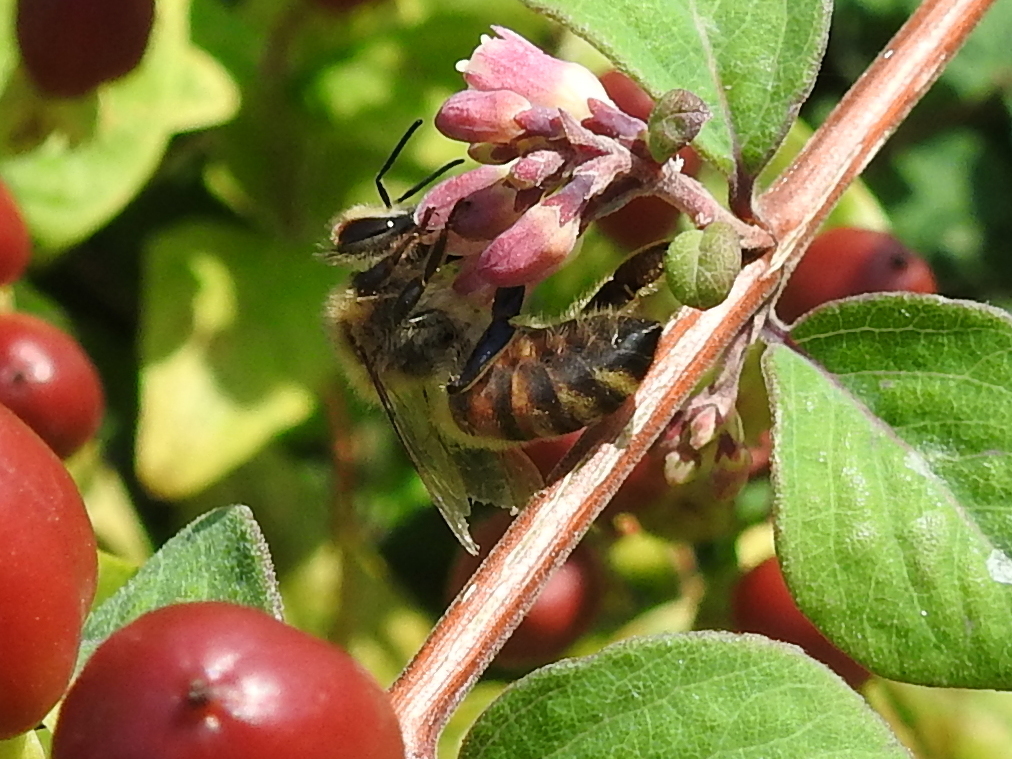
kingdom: Animalia
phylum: Arthropoda
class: Insecta
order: Hymenoptera
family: Apidae
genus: Apis
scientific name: Apis mellifera
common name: Honey bee
